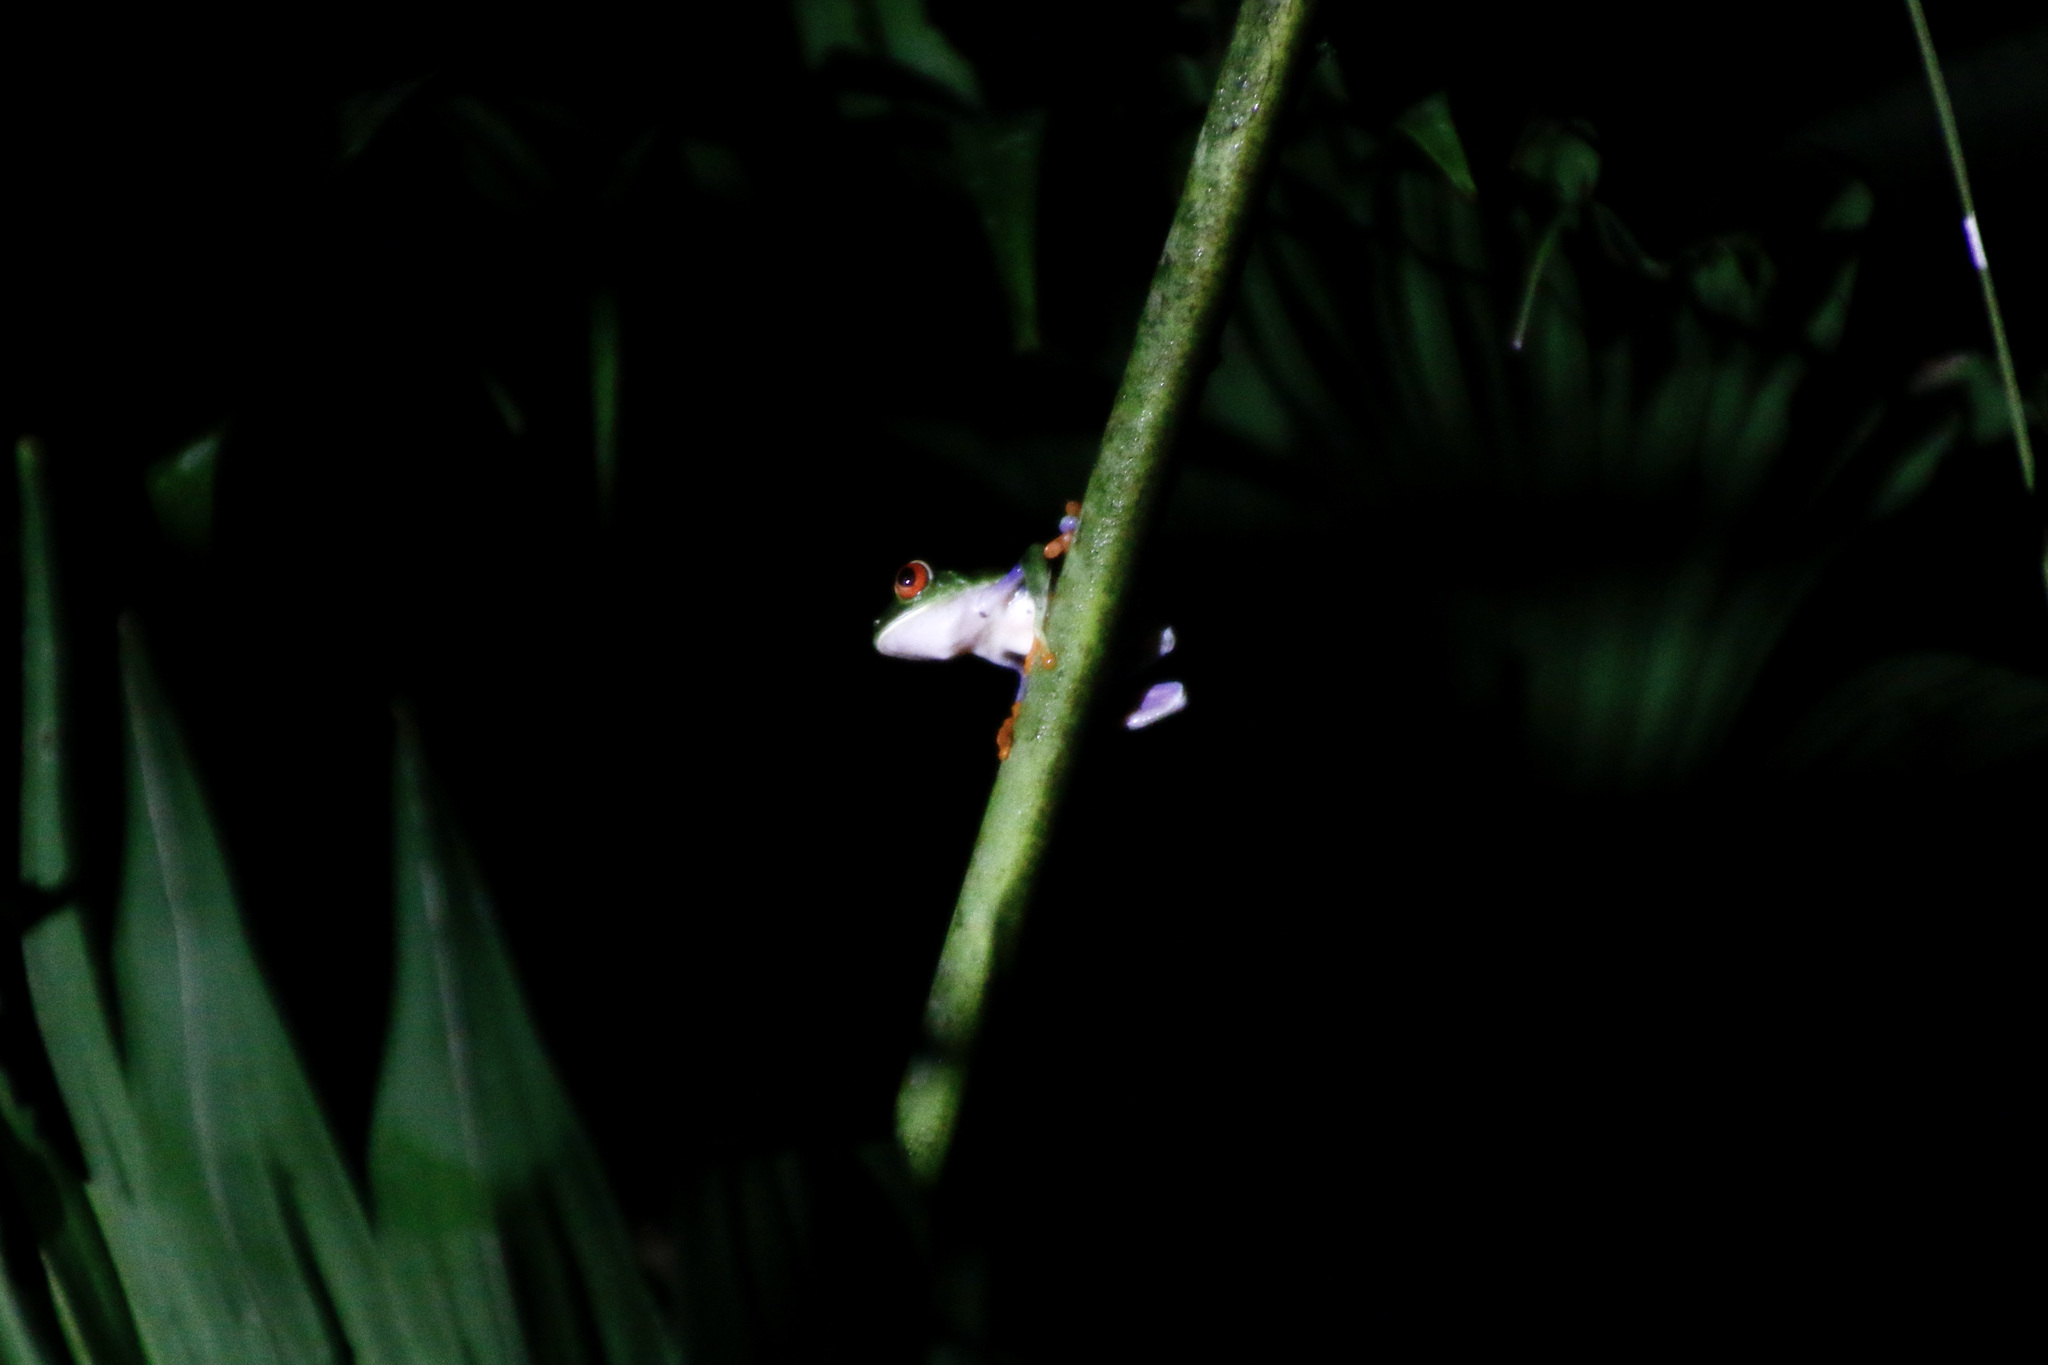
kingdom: Animalia
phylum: Chordata
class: Amphibia
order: Anura
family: Phyllomedusidae
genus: Agalychnis
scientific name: Agalychnis callidryas
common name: Red-eyed treefrog
